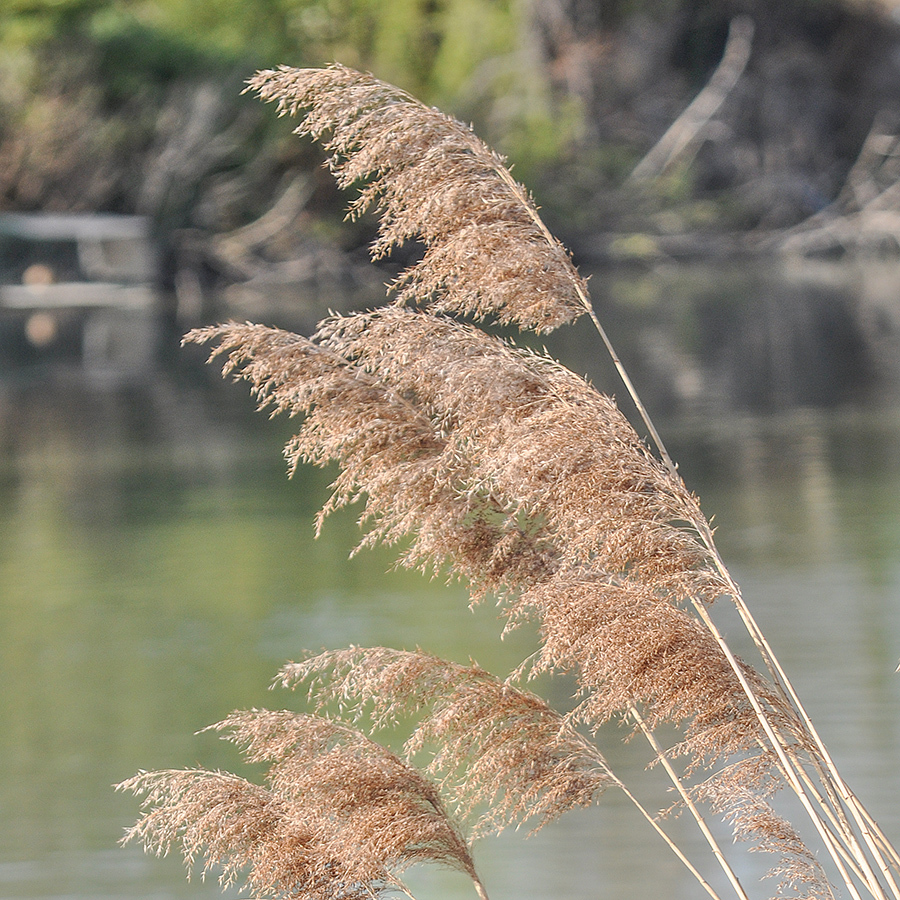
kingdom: Plantae
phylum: Tracheophyta
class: Liliopsida
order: Poales
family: Poaceae
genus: Phragmites
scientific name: Phragmites australis
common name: Common reed
